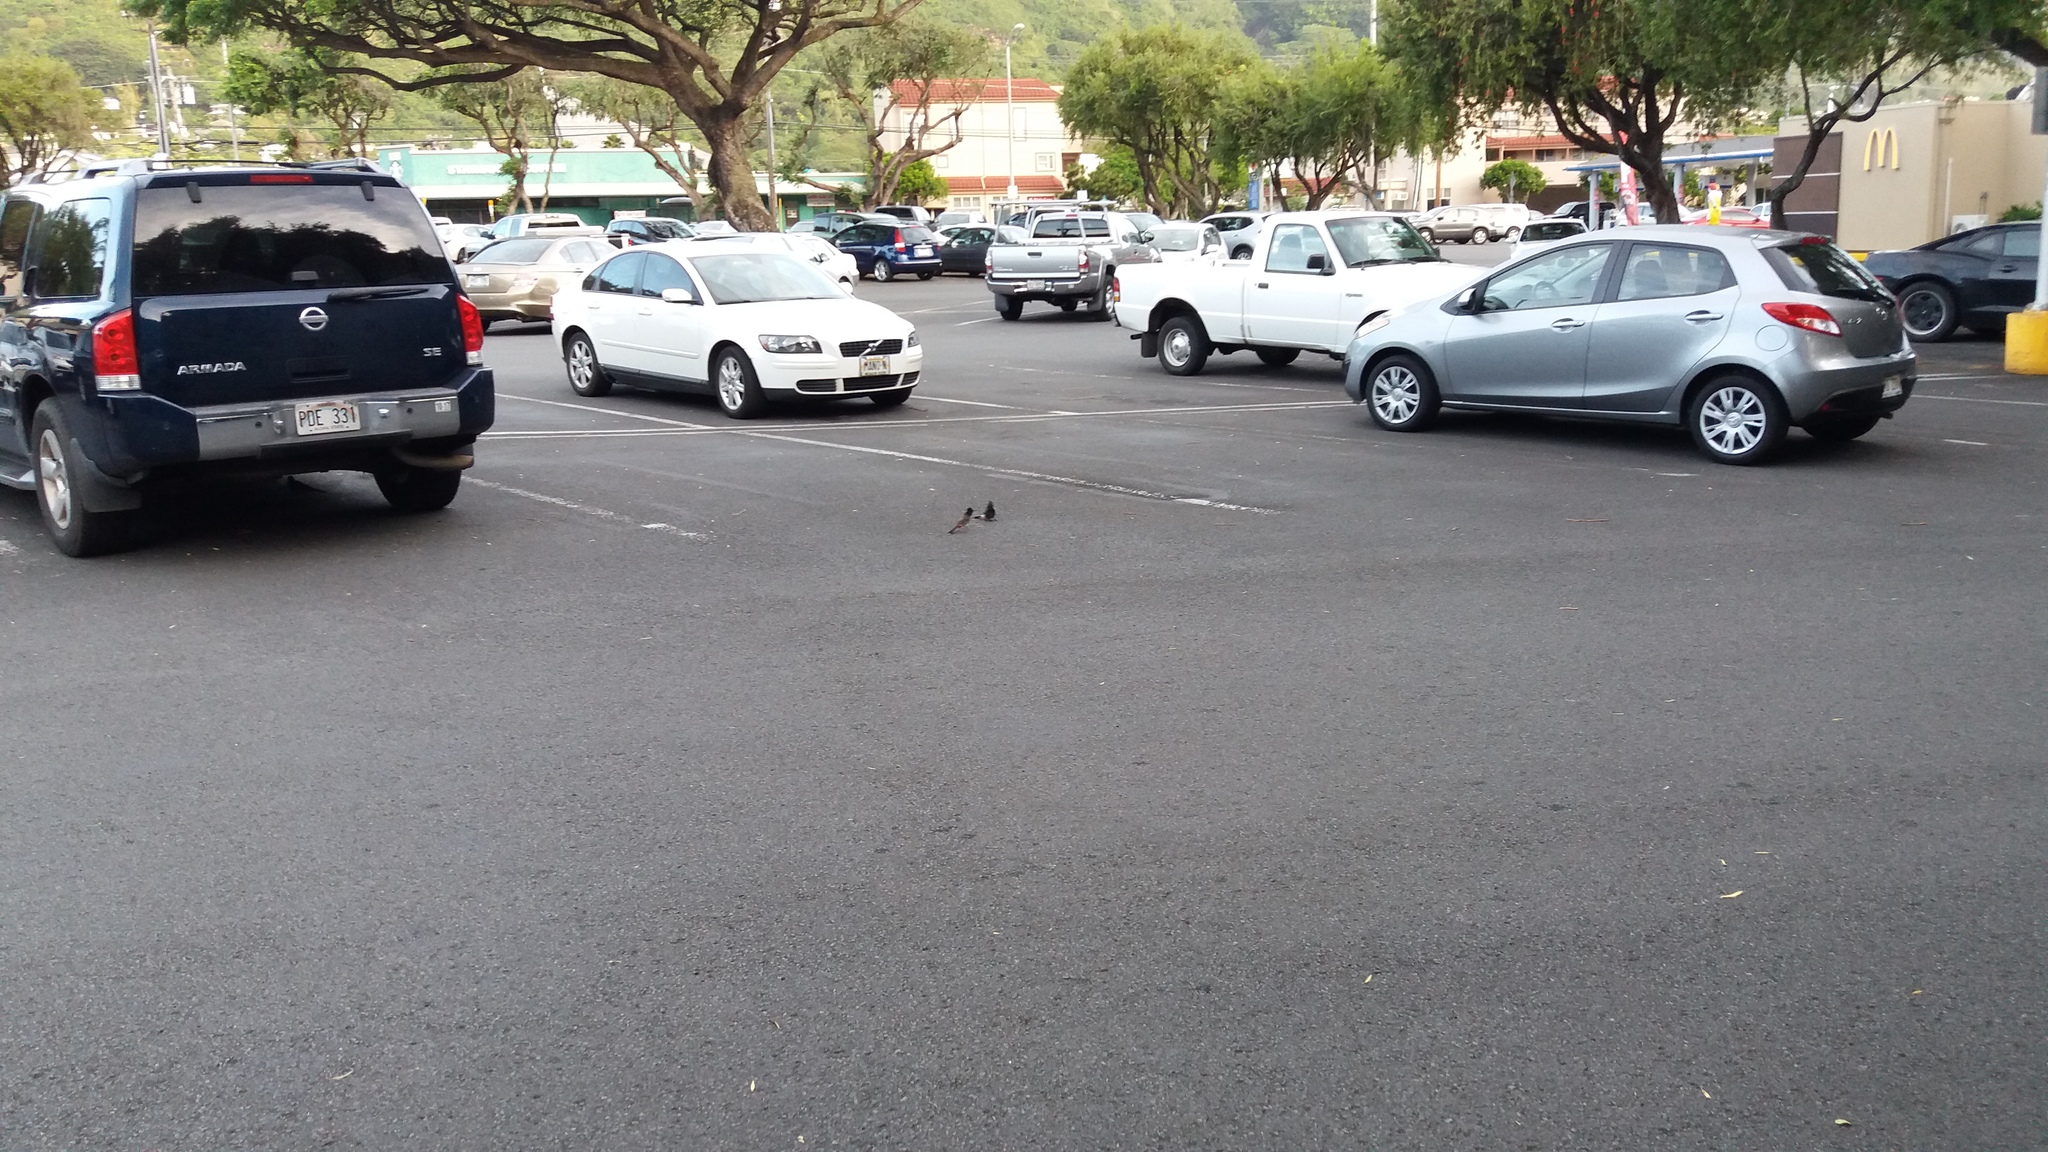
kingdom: Animalia
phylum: Chordata
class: Aves
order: Passeriformes
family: Pycnonotidae
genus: Pycnonotus
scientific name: Pycnonotus cafer
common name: Red-vented bulbul
